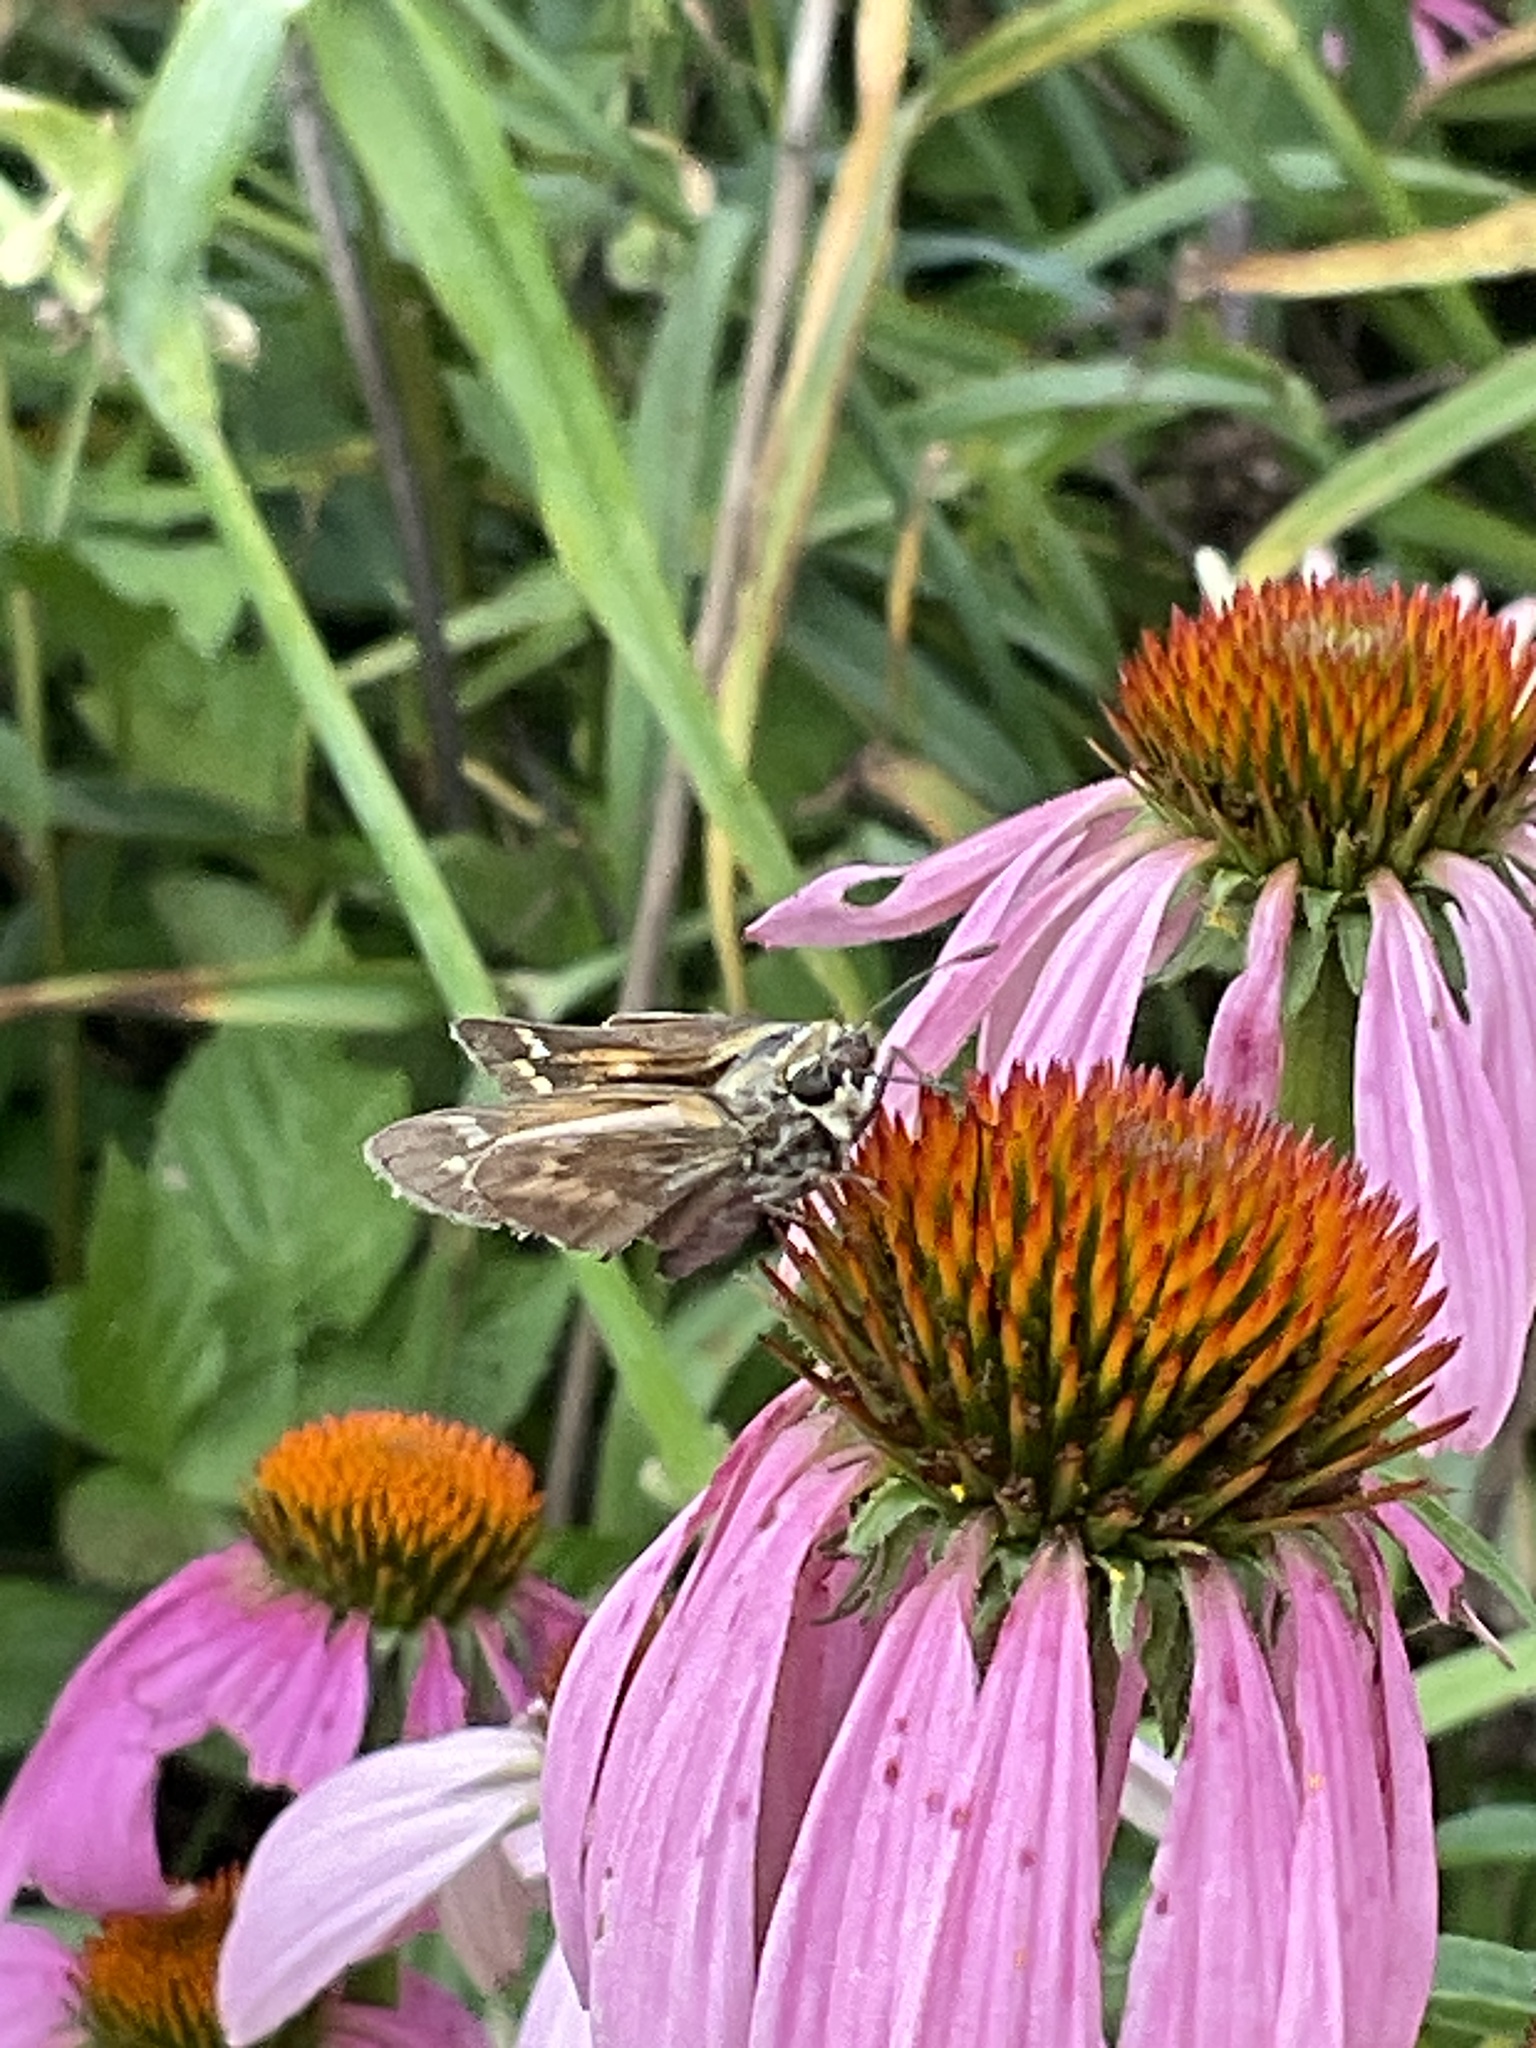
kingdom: Animalia
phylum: Arthropoda
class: Insecta
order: Lepidoptera
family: Hesperiidae
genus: Atalopedes
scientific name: Atalopedes
